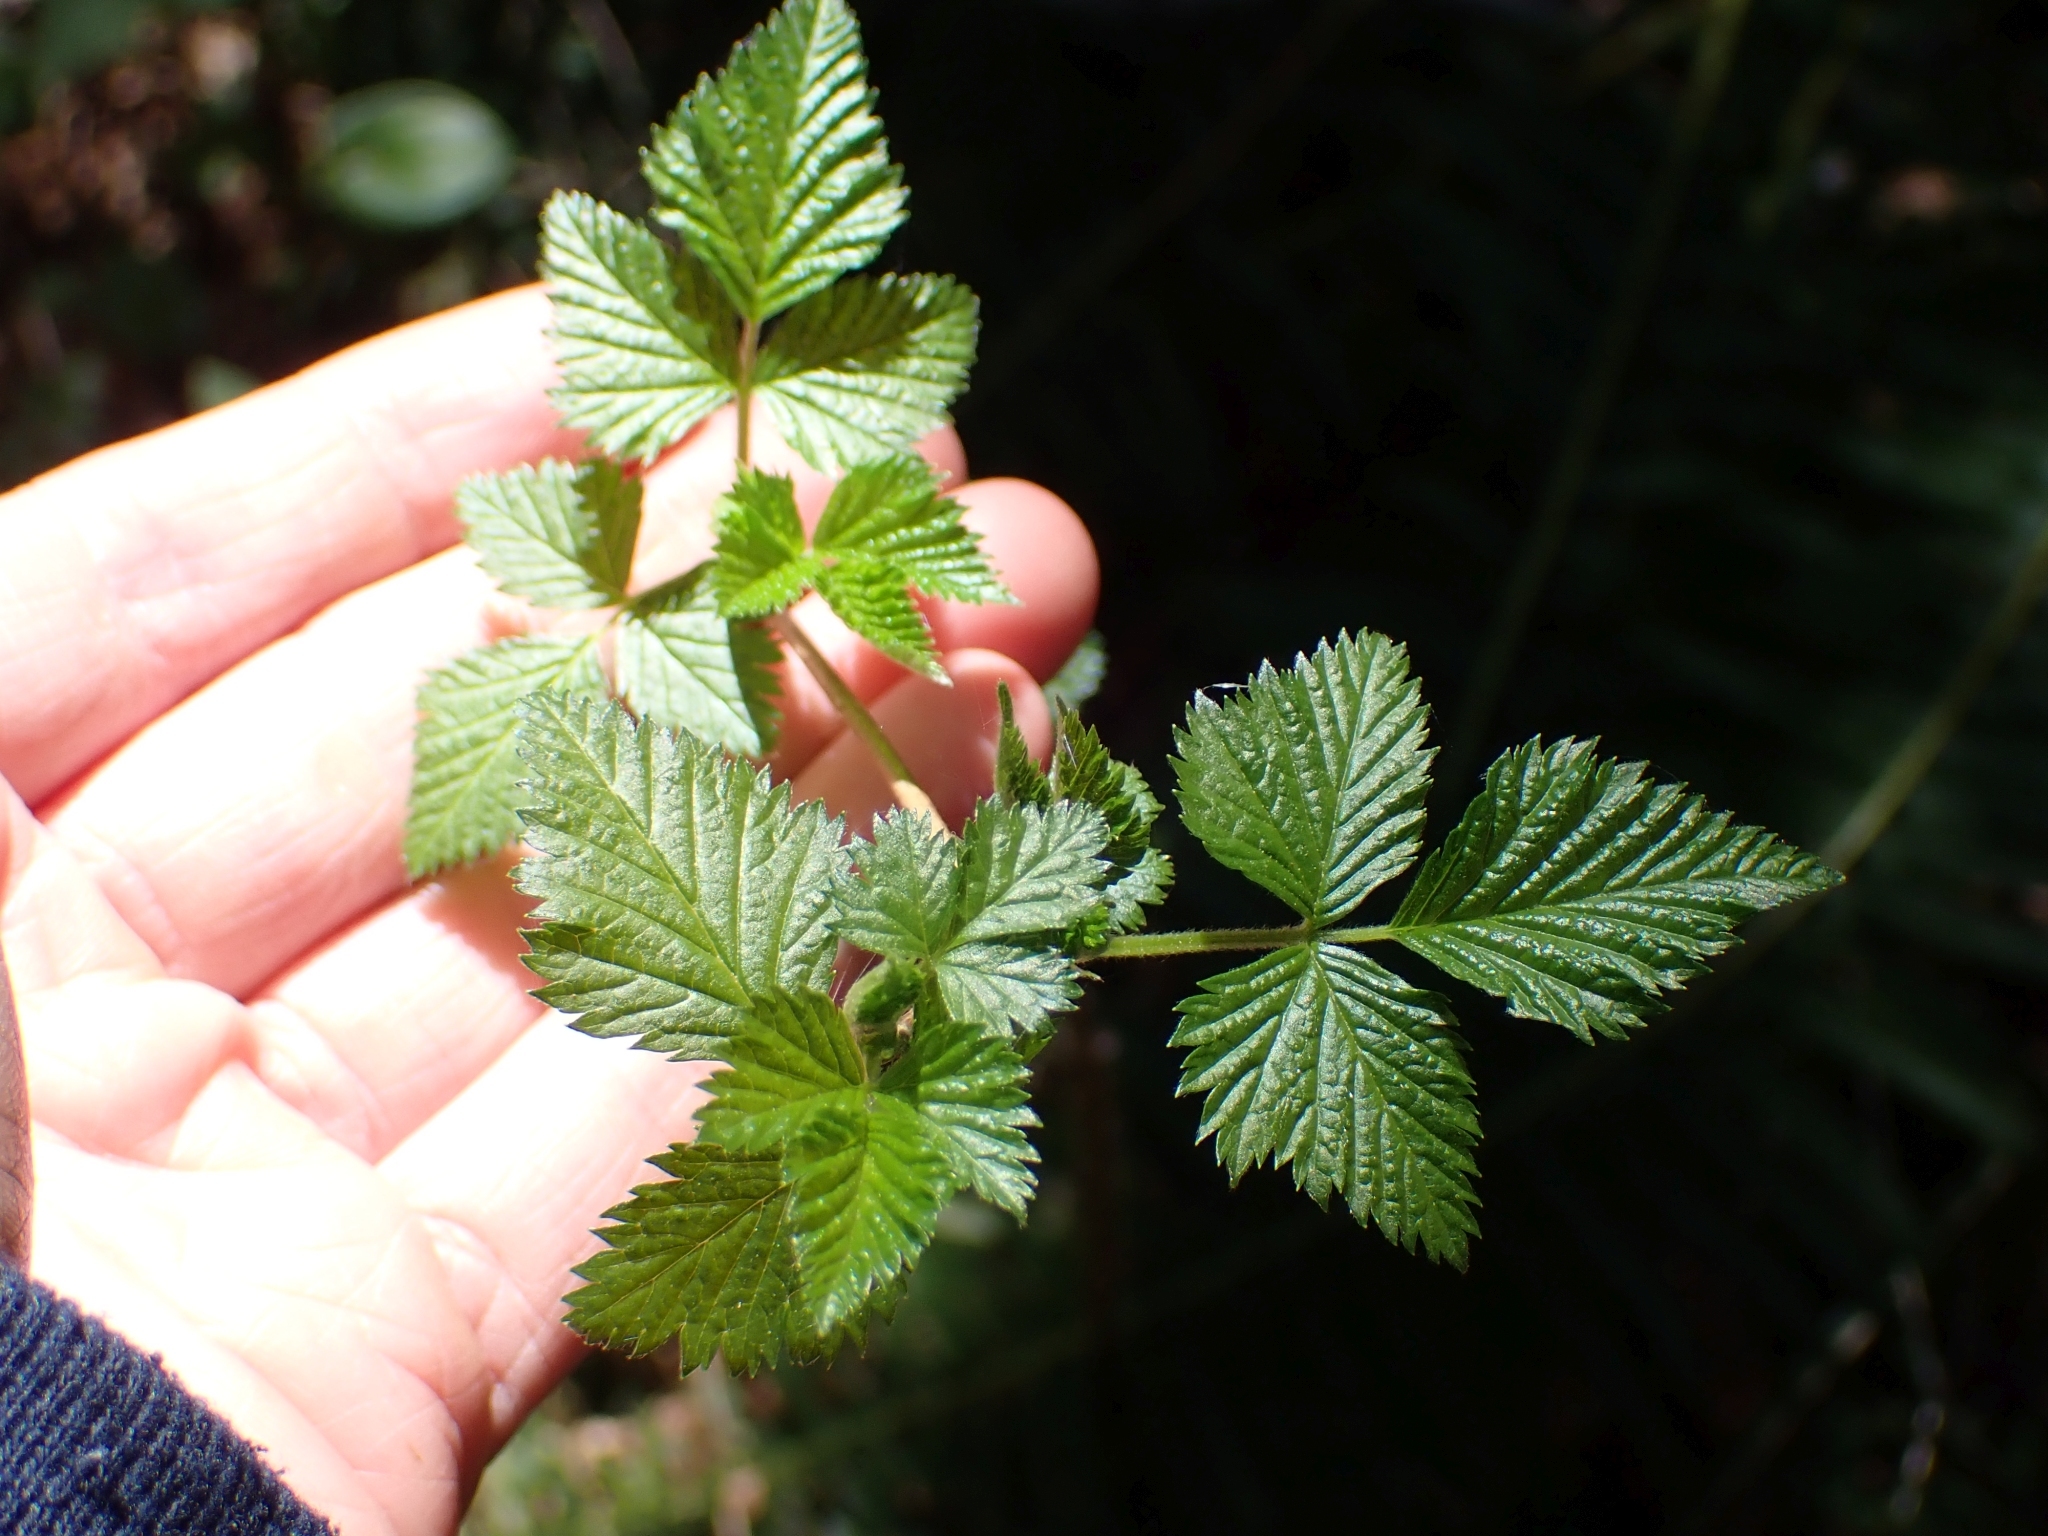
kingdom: Plantae
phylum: Tracheophyta
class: Magnoliopsida
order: Rosales
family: Rosaceae
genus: Rubus
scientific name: Rubus spectabilis
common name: Salmonberry
